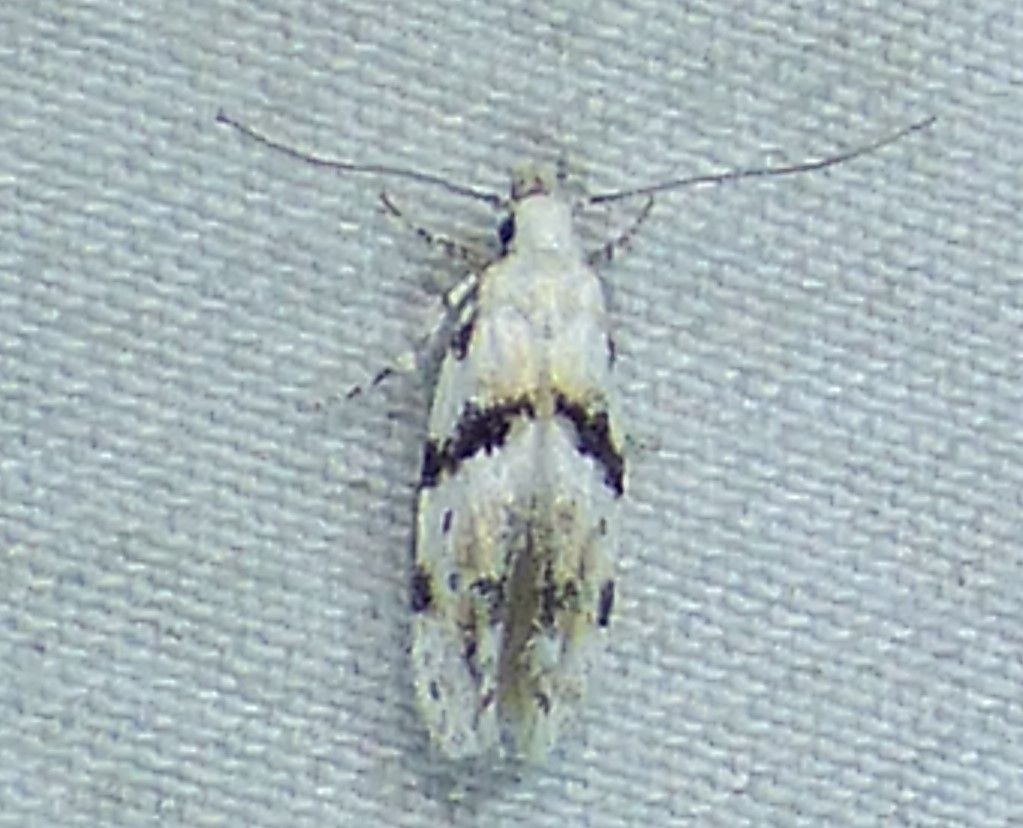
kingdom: Animalia
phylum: Arthropoda
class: Insecta
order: Lepidoptera
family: Gelechiidae
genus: Arogalea
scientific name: Arogalea cristifasciella
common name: White stripe-backed moth
